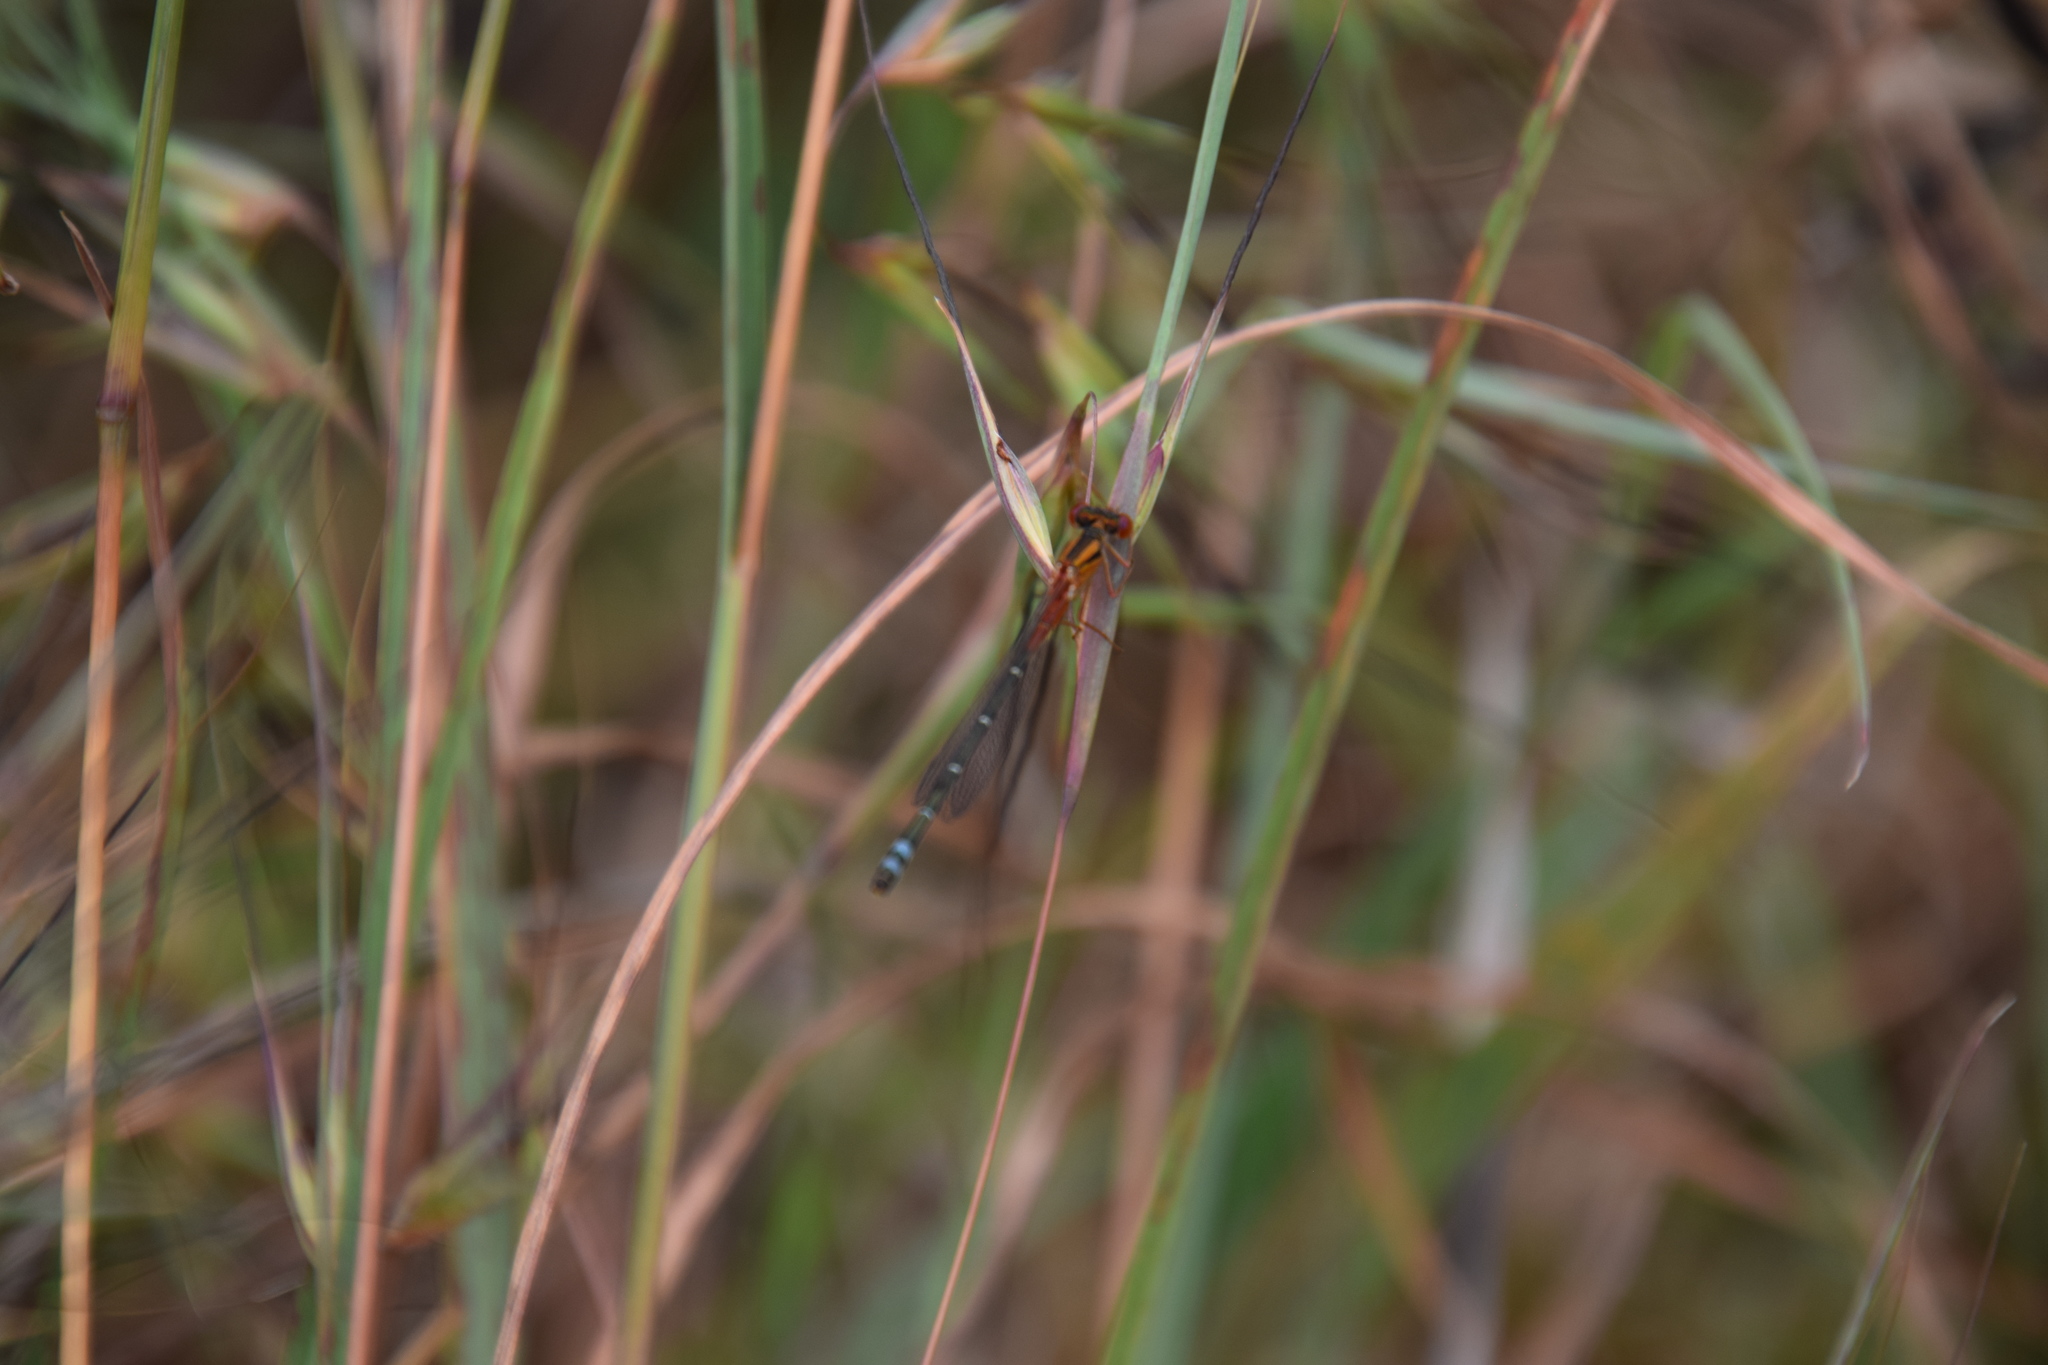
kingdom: Animalia
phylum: Arthropoda
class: Insecta
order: Odonata
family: Coenagrionidae
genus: Xanthagrion
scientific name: Xanthagrion erythroneurum
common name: Red and blue damsel
